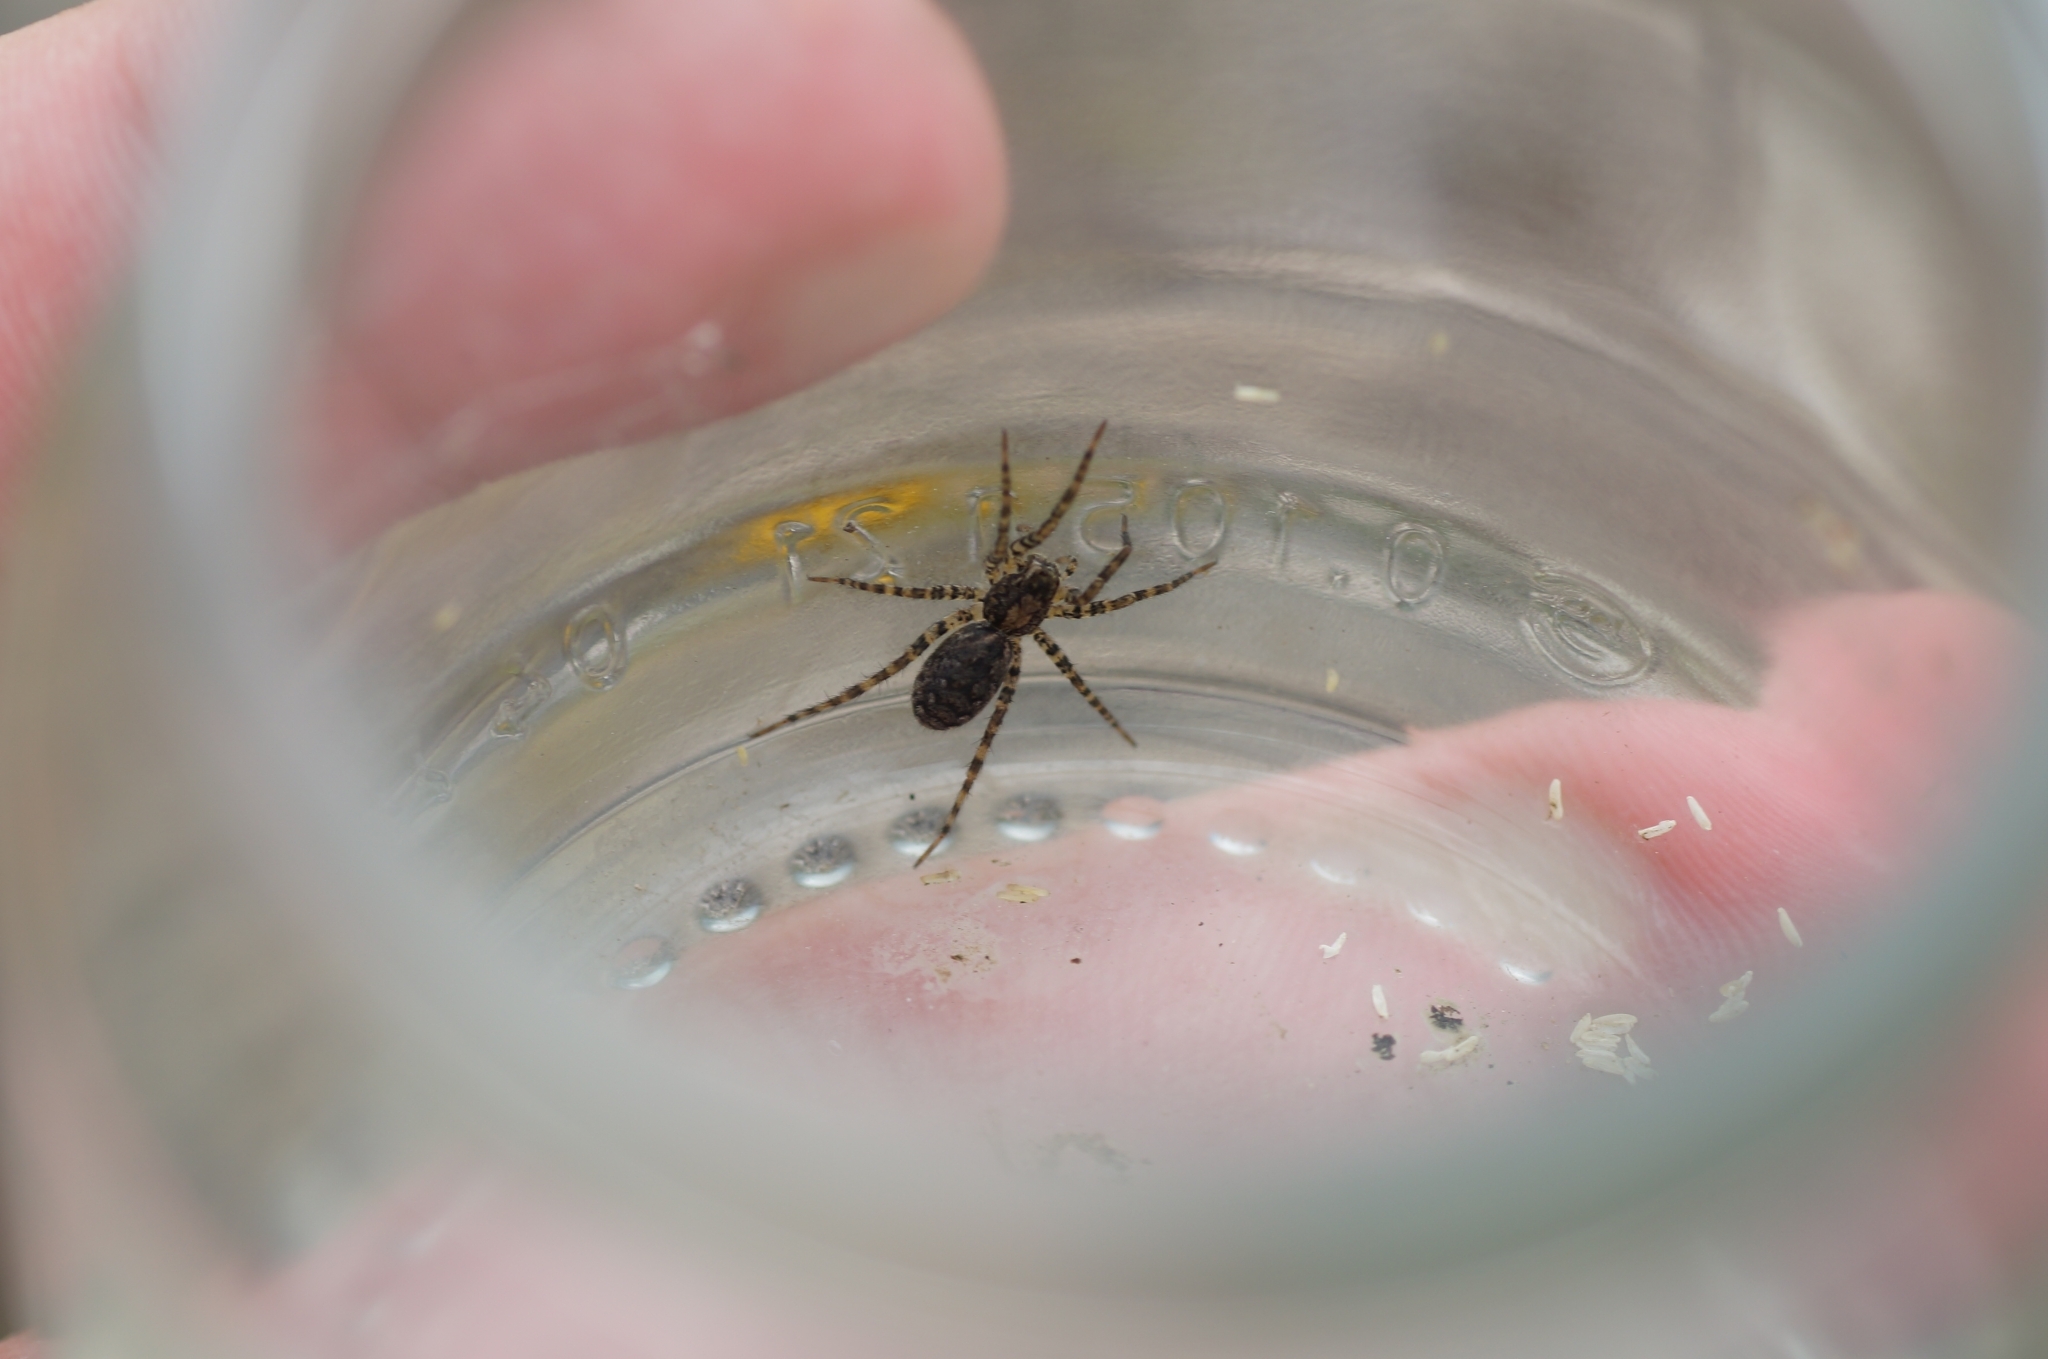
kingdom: Animalia
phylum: Arthropoda
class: Arachnida
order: Araneae
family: Lycosidae
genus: Alopecosa
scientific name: Alopecosa
